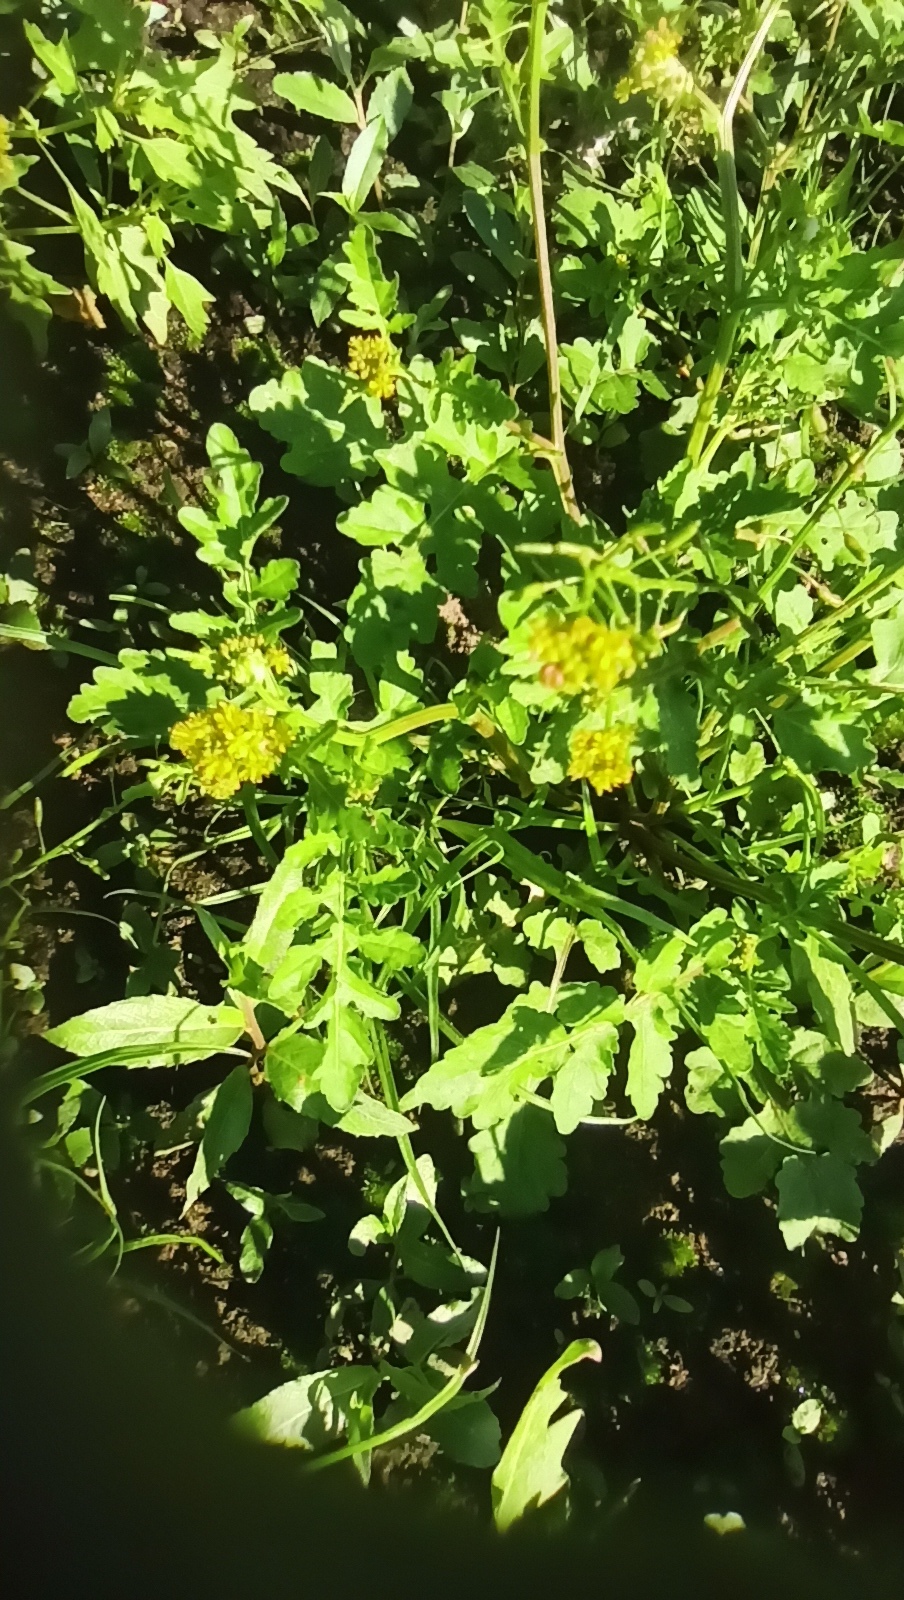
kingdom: Plantae
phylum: Tracheophyta
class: Magnoliopsida
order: Brassicales
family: Brassicaceae
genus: Rorippa
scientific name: Rorippa palustris
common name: Marsh yellow-cress
